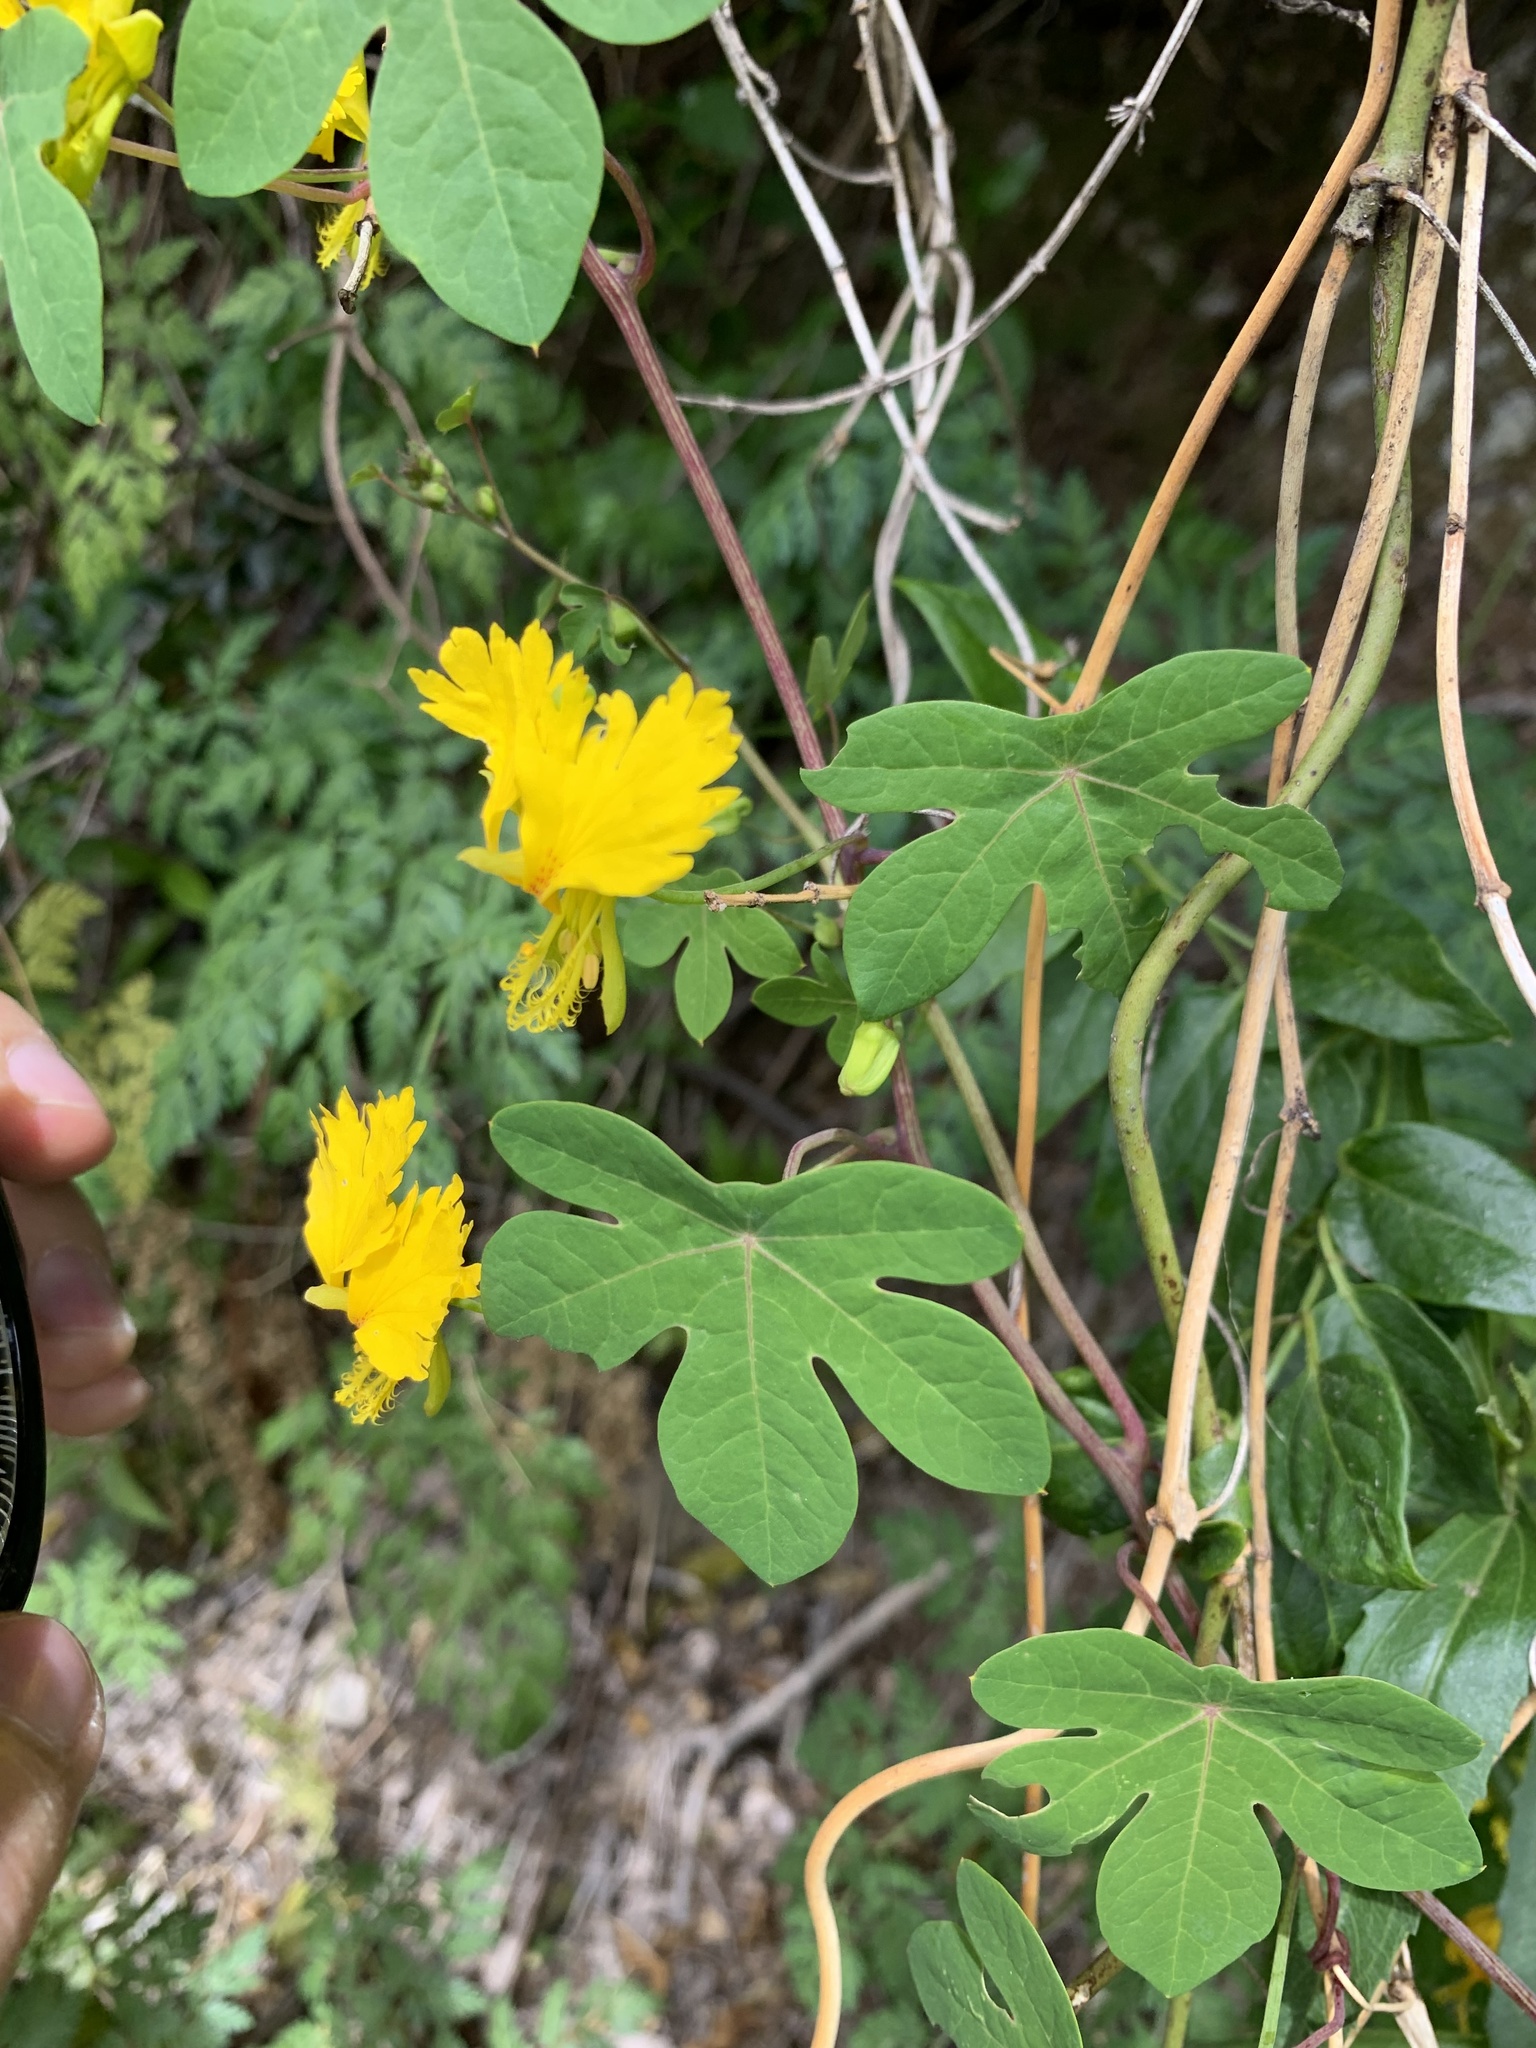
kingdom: Plantae
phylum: Tracheophyta
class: Magnoliopsida
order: Brassicales
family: Tropaeolaceae
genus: Tropaeolum
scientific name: Tropaeolum peregrinum
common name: Canary-creeper
